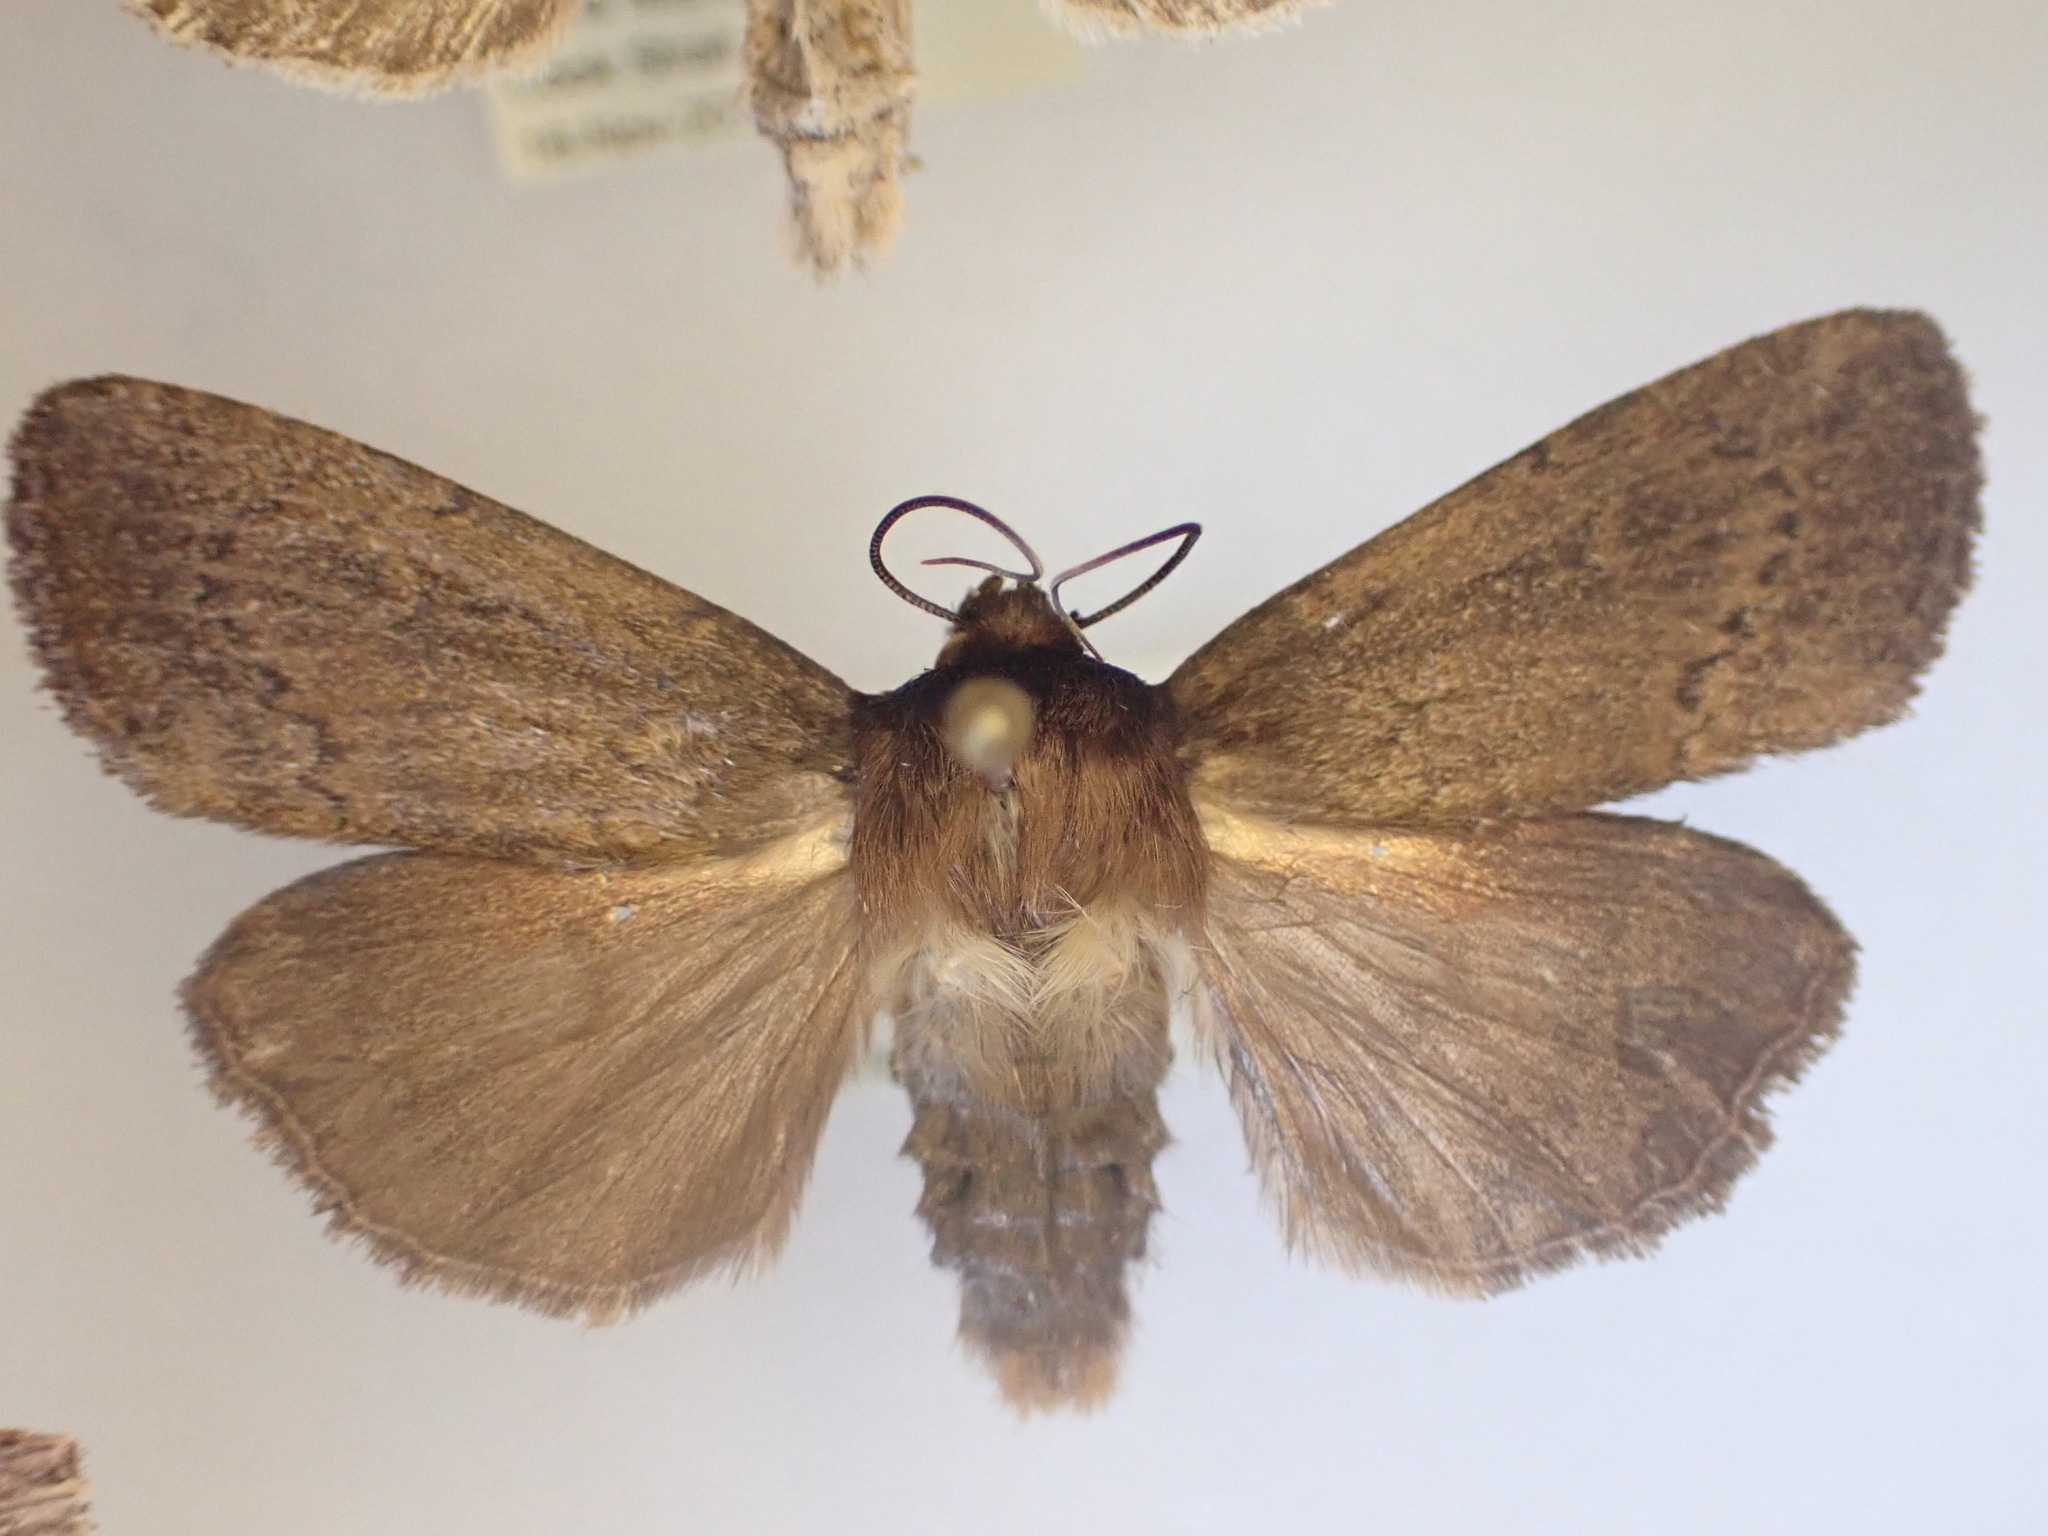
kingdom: Animalia
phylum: Arthropoda
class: Insecta
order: Lepidoptera
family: Noctuidae
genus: Bityla
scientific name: Bityla defigurata
